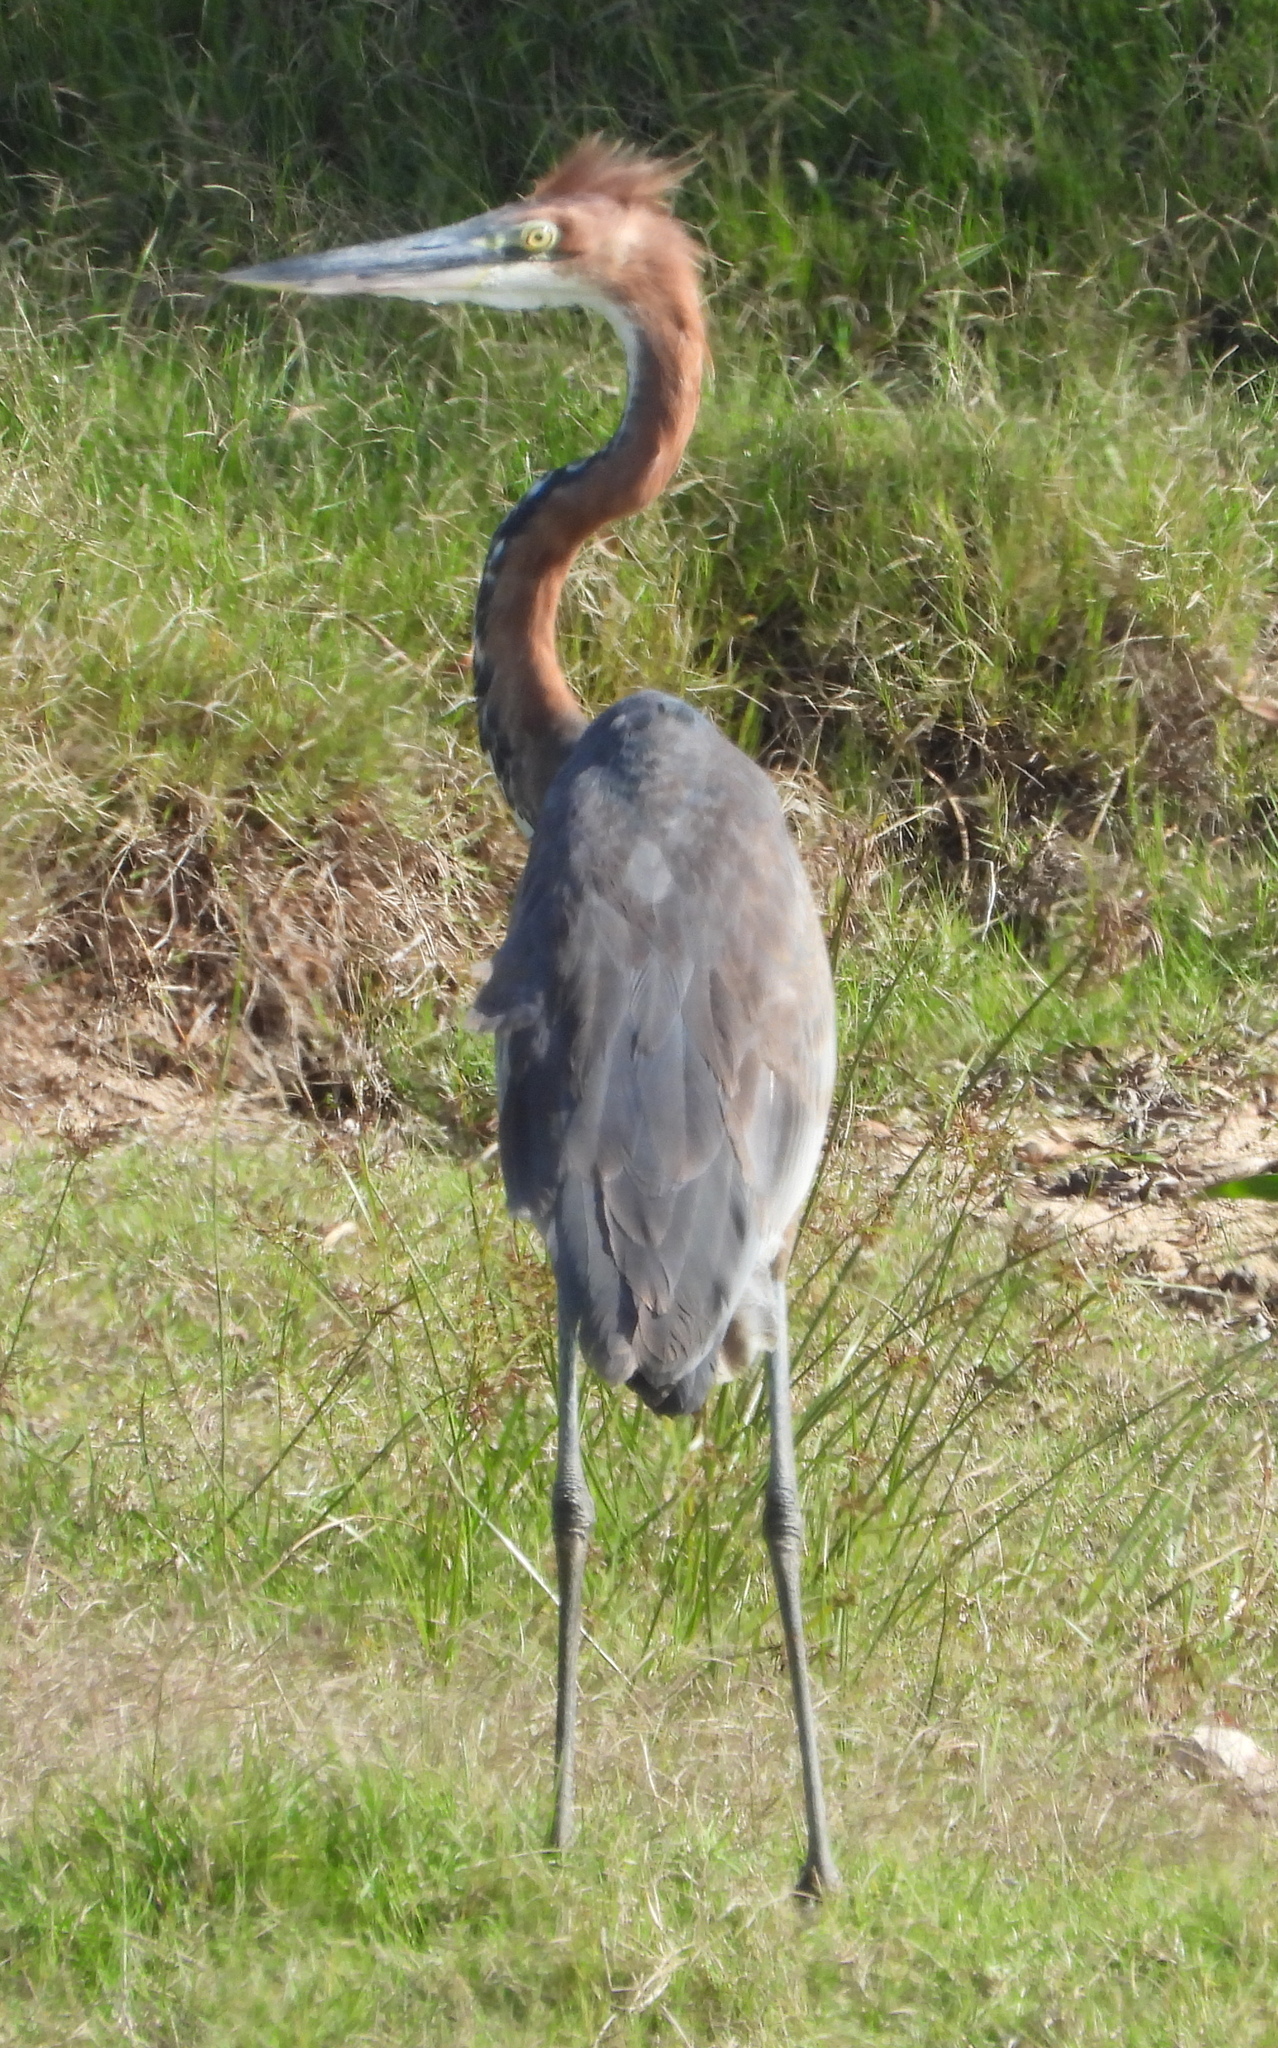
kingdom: Animalia
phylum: Chordata
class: Aves
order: Pelecaniformes
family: Ardeidae
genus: Ardea
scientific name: Ardea goliath
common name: Goliath heron
